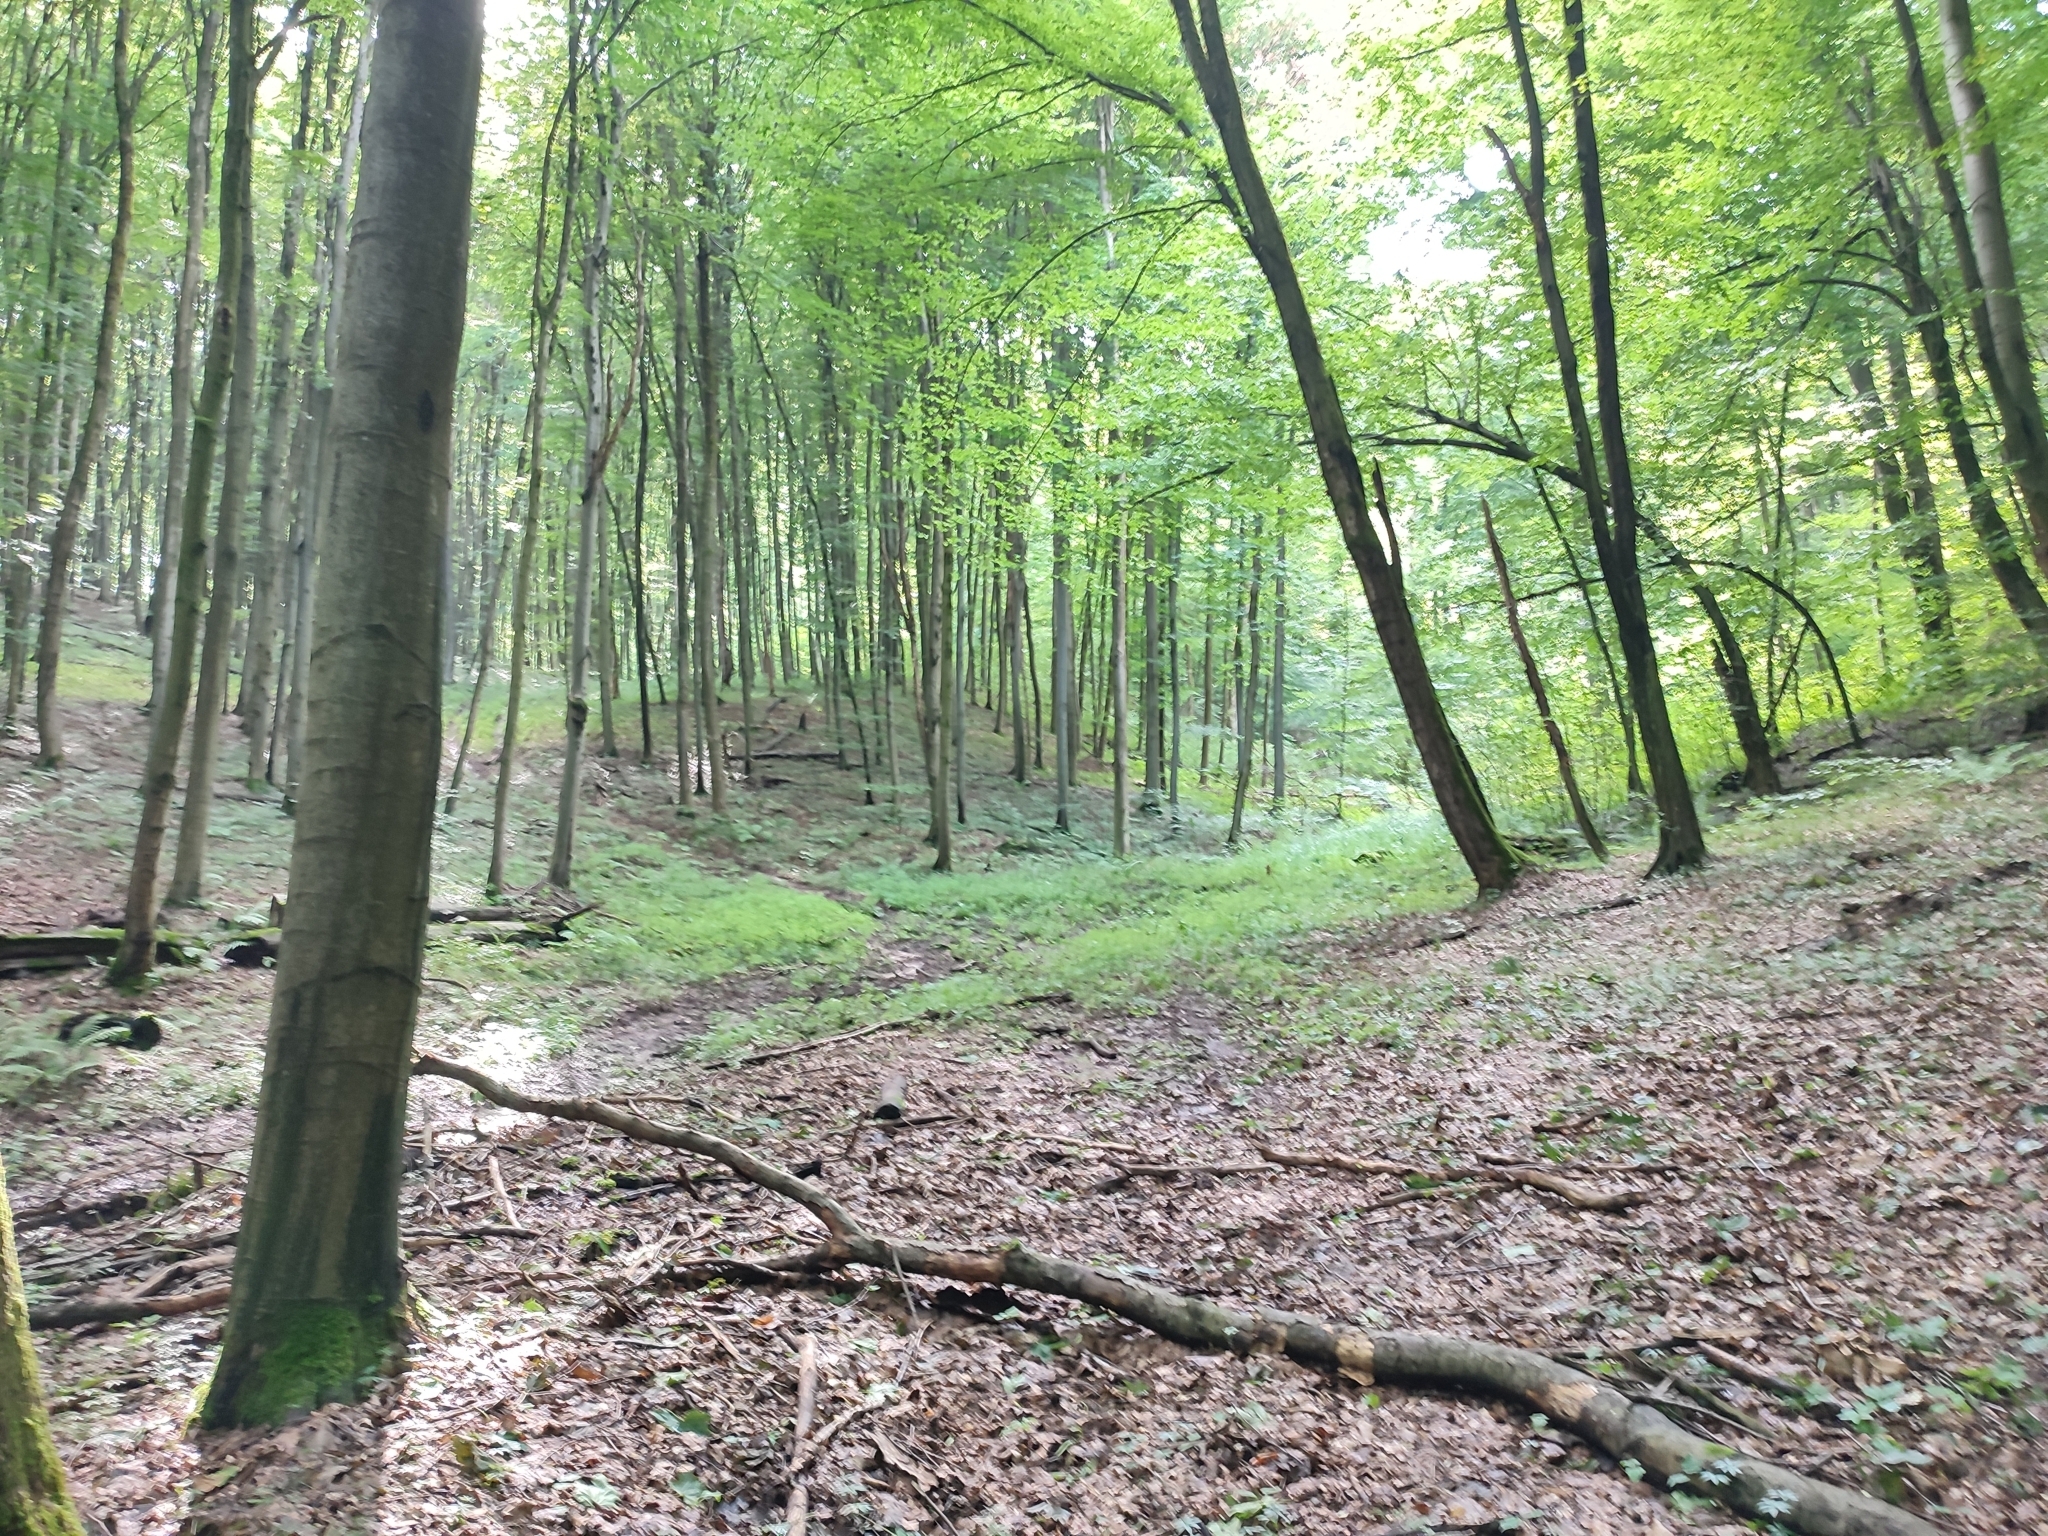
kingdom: Plantae
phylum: Tracheophyta
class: Magnoliopsida
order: Fagales
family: Fagaceae
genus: Fagus
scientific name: Fagus sylvatica
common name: Beech
